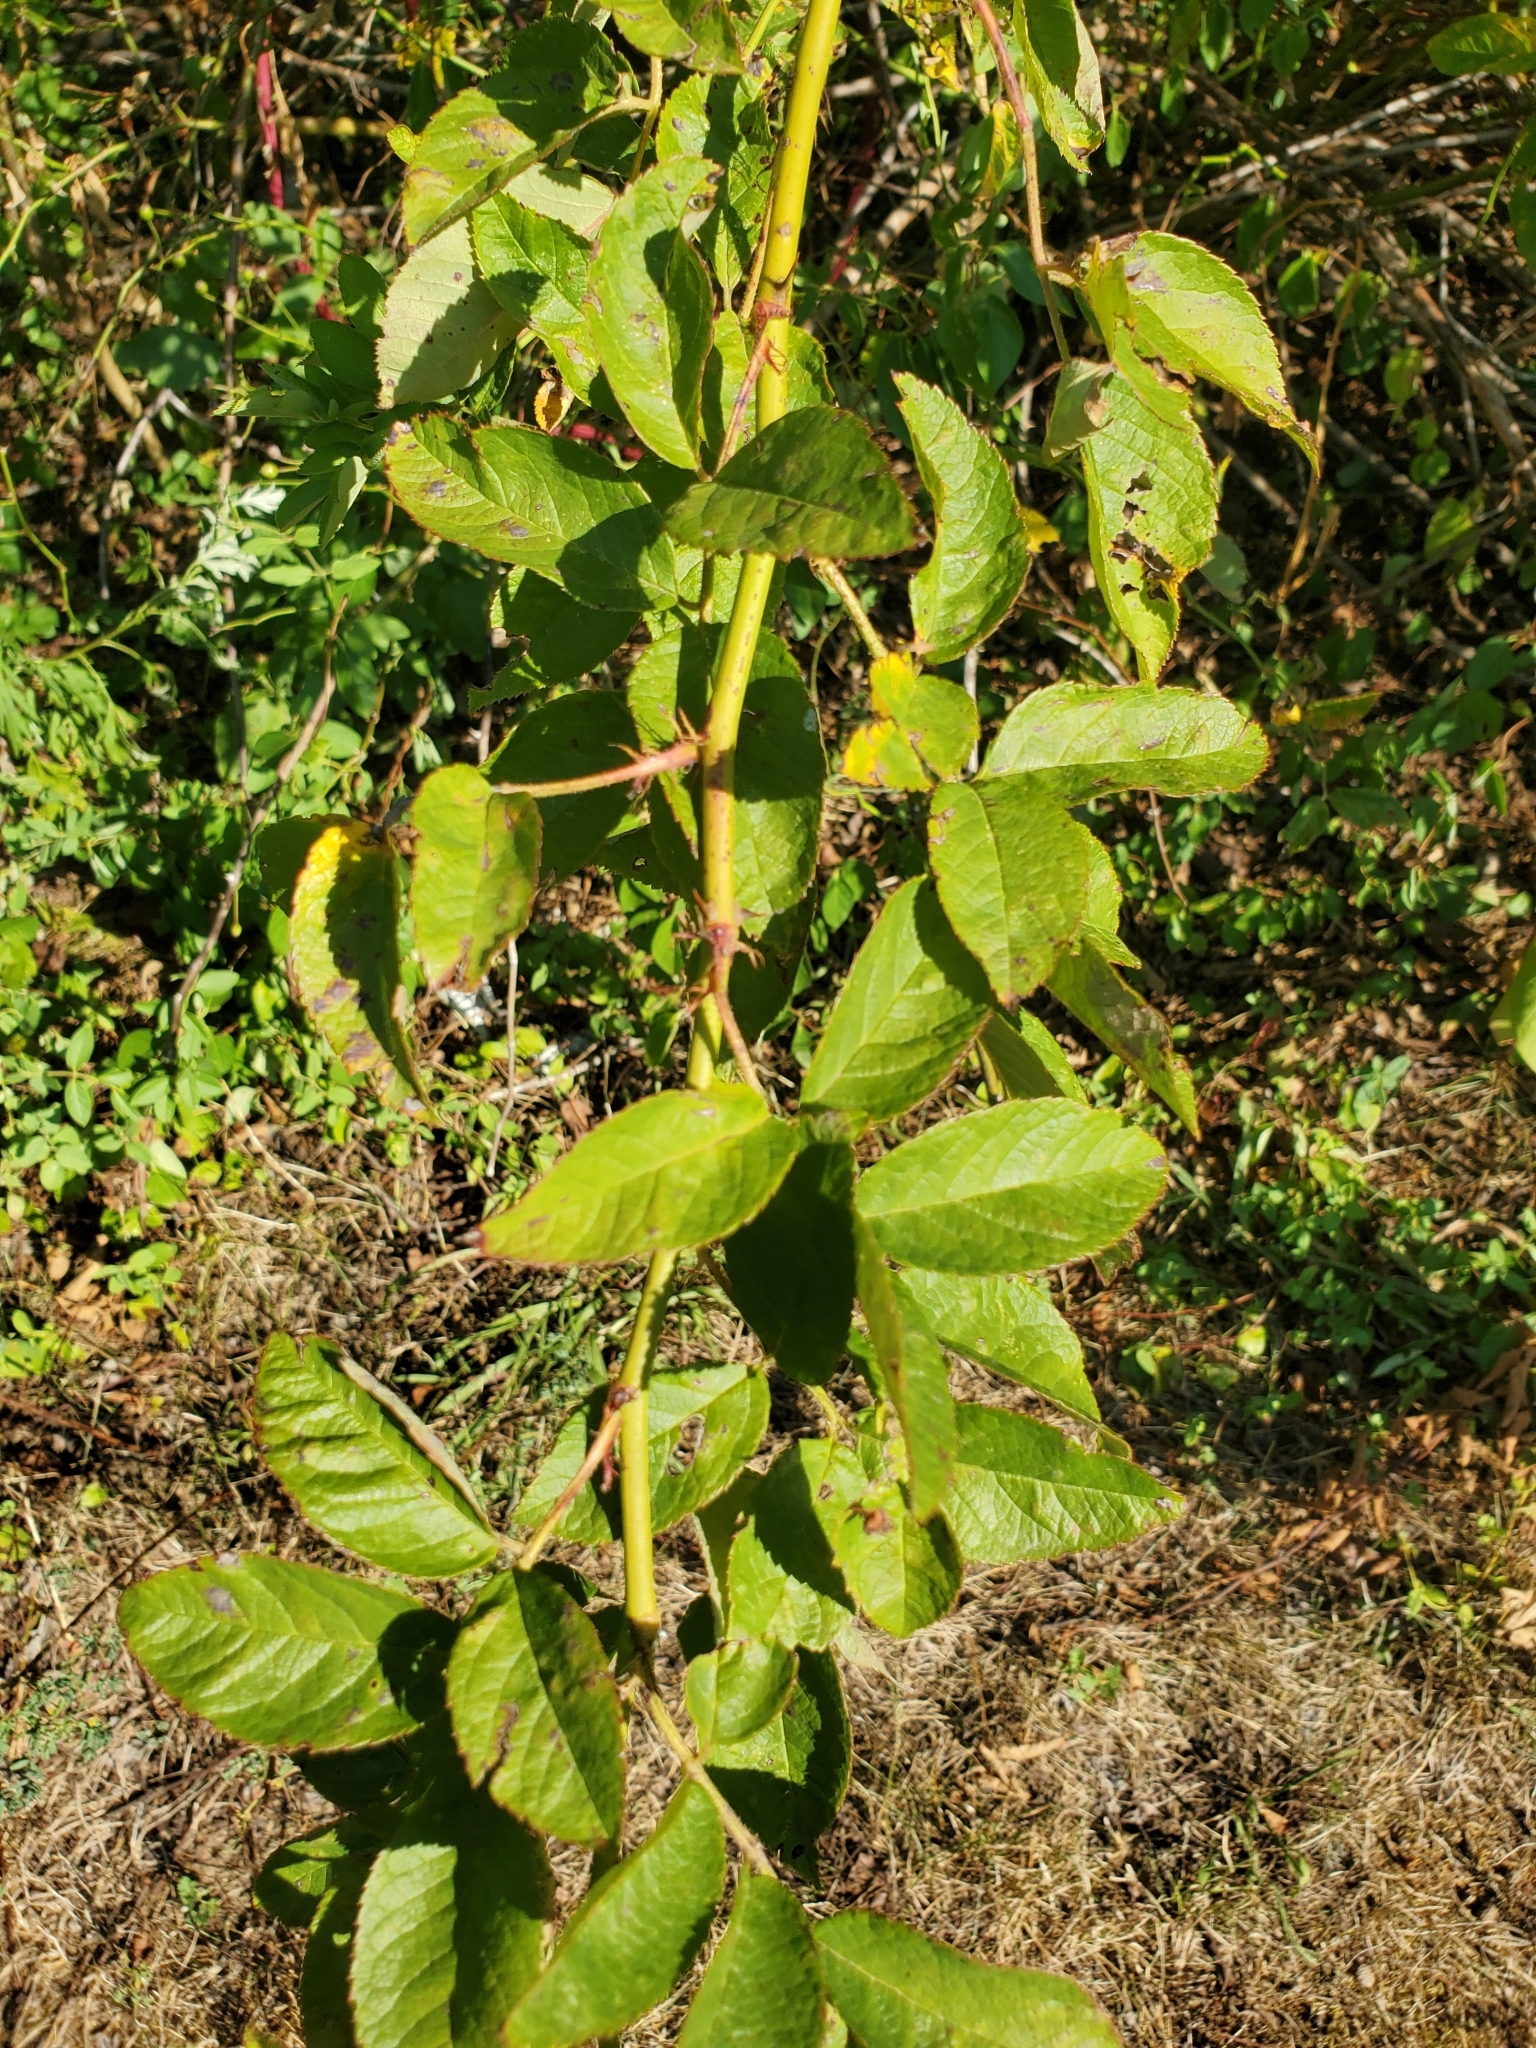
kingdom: Plantae
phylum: Tracheophyta
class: Magnoliopsida
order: Rosales
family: Rosaceae
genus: Rosa
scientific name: Rosa multiflora
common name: Multiflora rose
